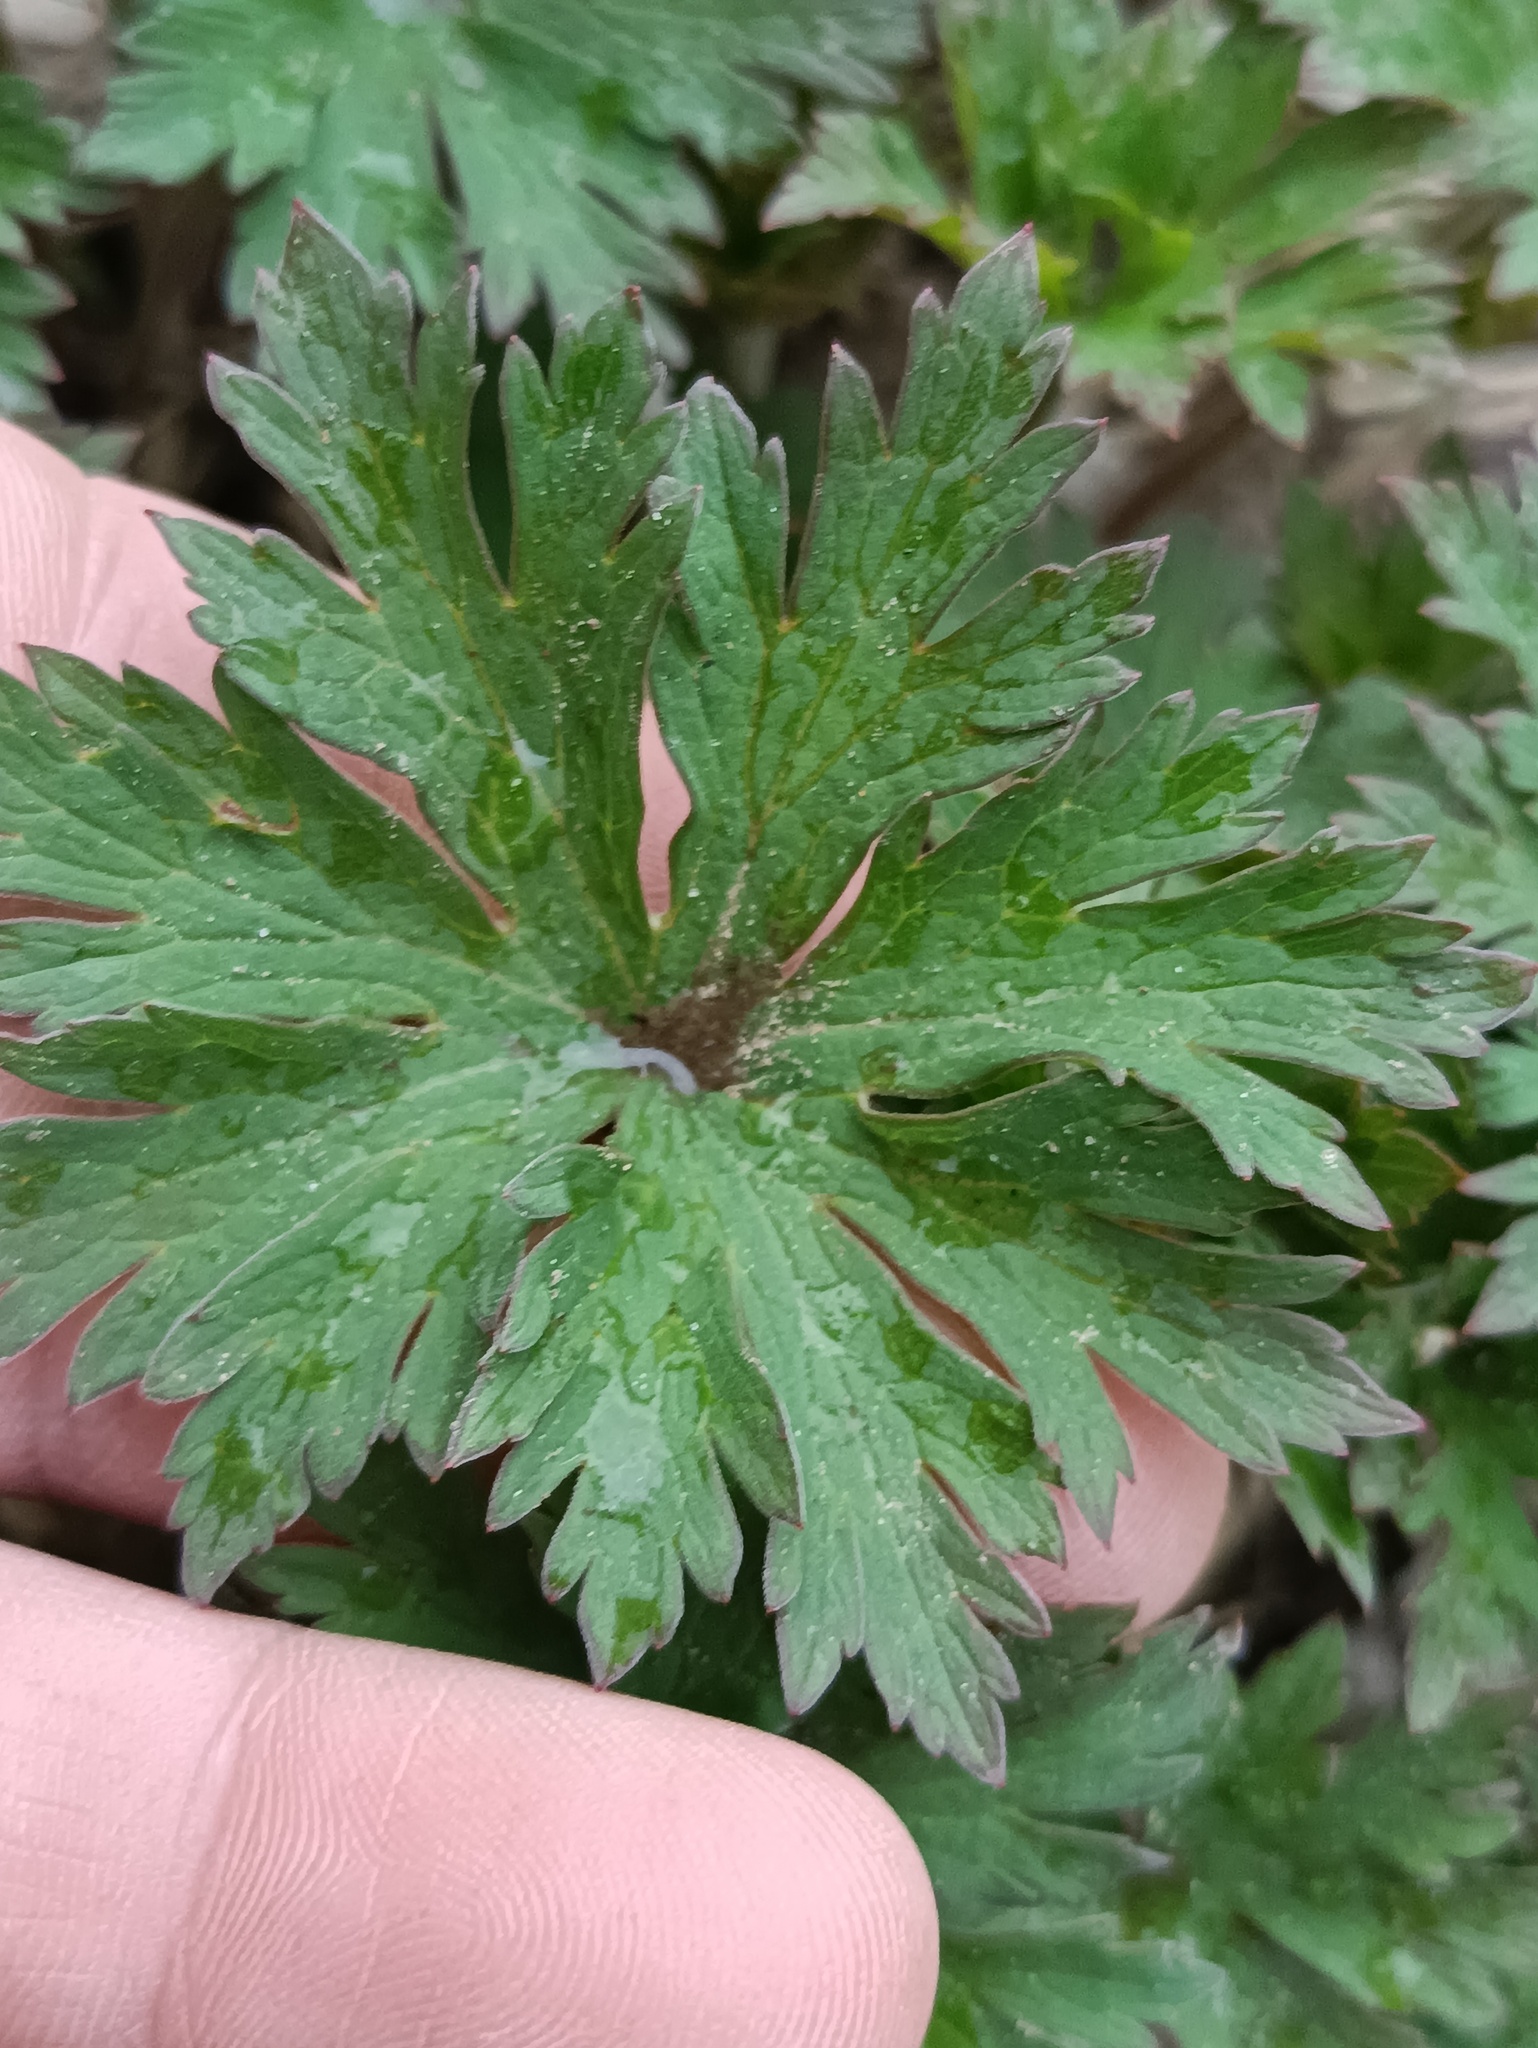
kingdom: Plantae
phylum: Tracheophyta
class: Magnoliopsida
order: Geraniales
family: Geraniaceae
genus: Geranium
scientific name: Geranium pratense
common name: Meadow crane's-bill
